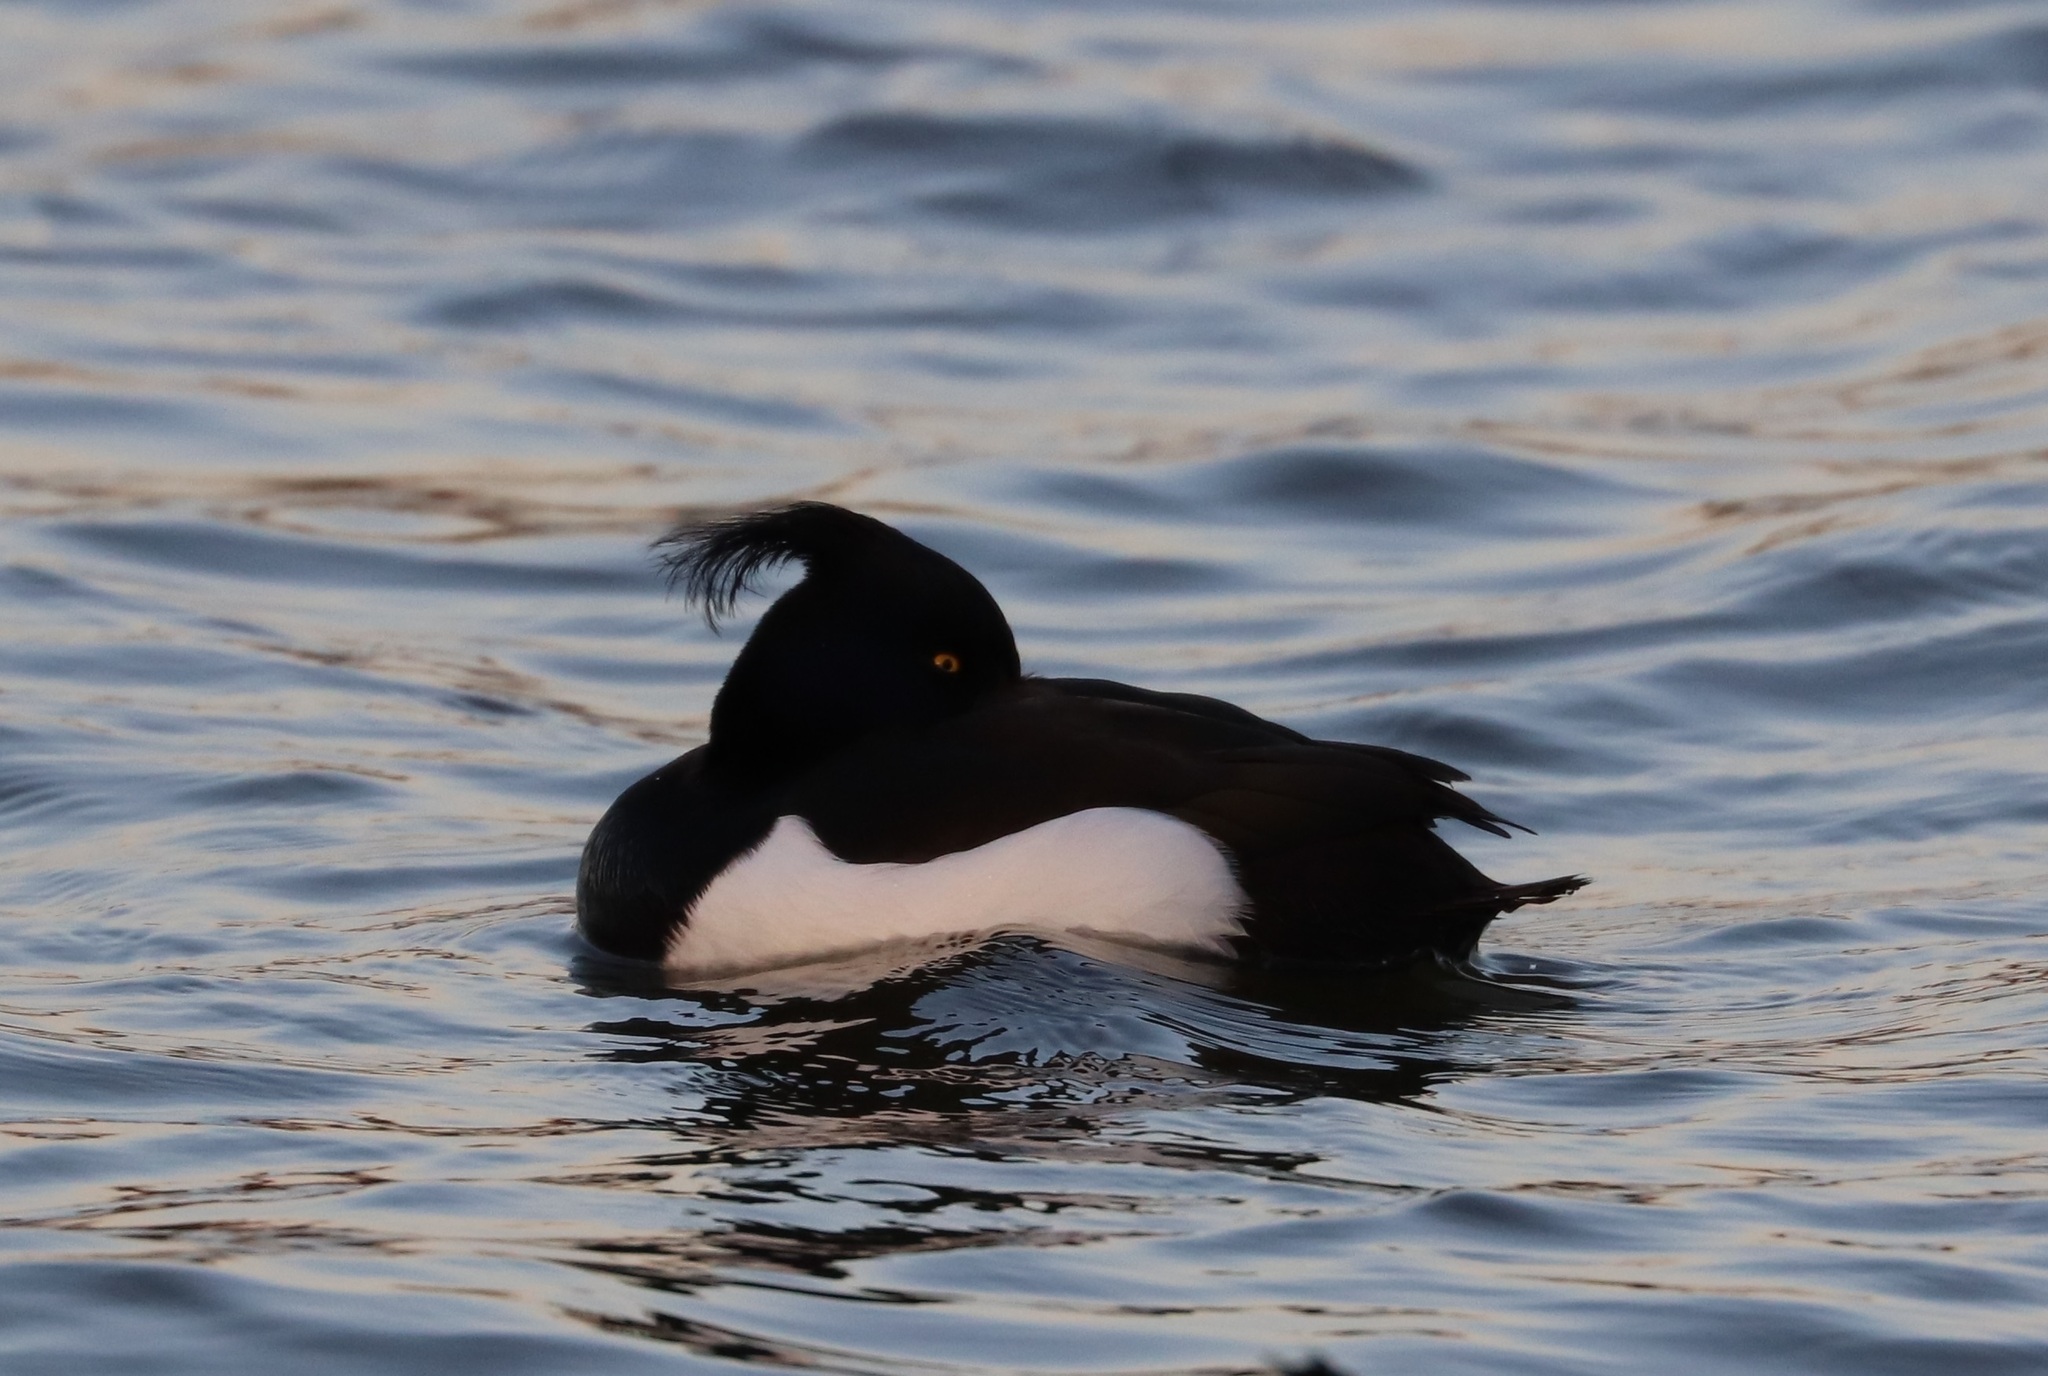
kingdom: Animalia
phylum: Chordata
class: Aves
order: Anseriformes
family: Anatidae
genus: Aythya
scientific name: Aythya fuligula
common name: Tufted duck
